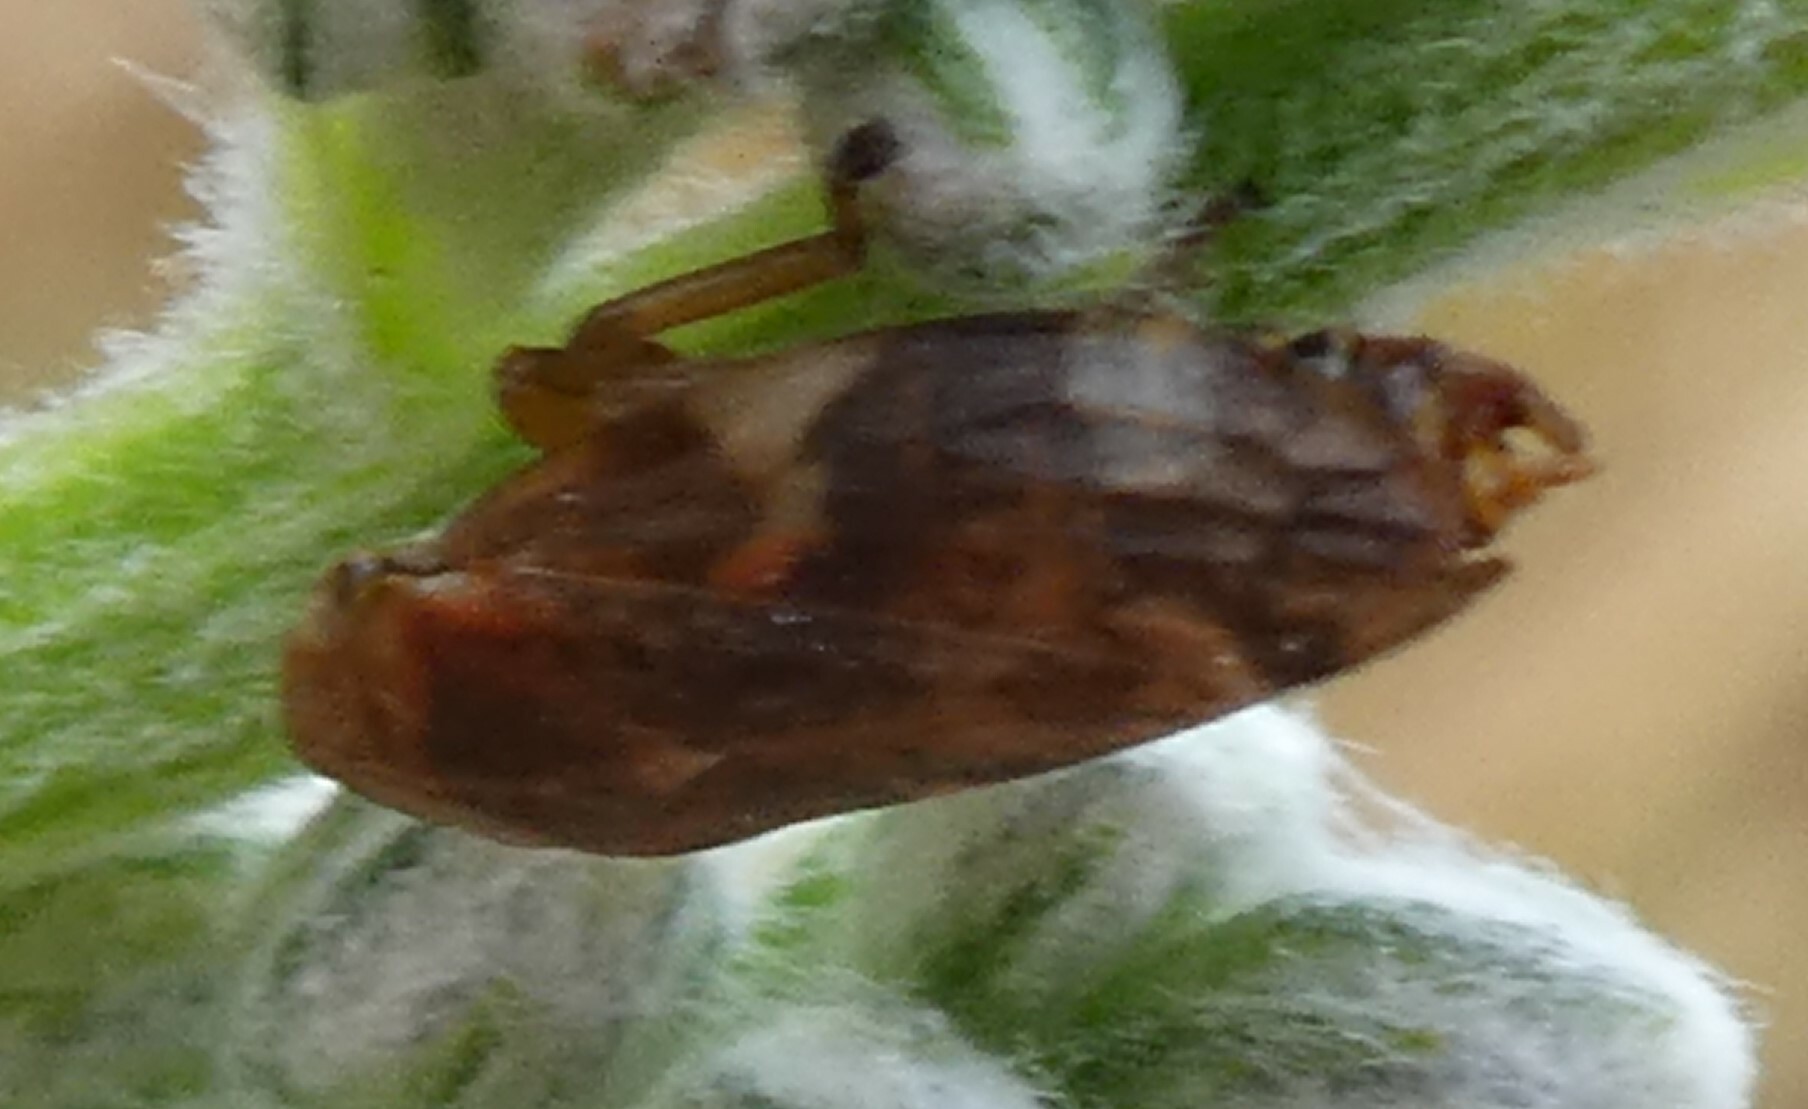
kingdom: Animalia
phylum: Arthropoda
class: Insecta
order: Hemiptera
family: Aphrophoridae
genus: Philaenus
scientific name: Philaenus spumarius
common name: Meadow spittlebug
